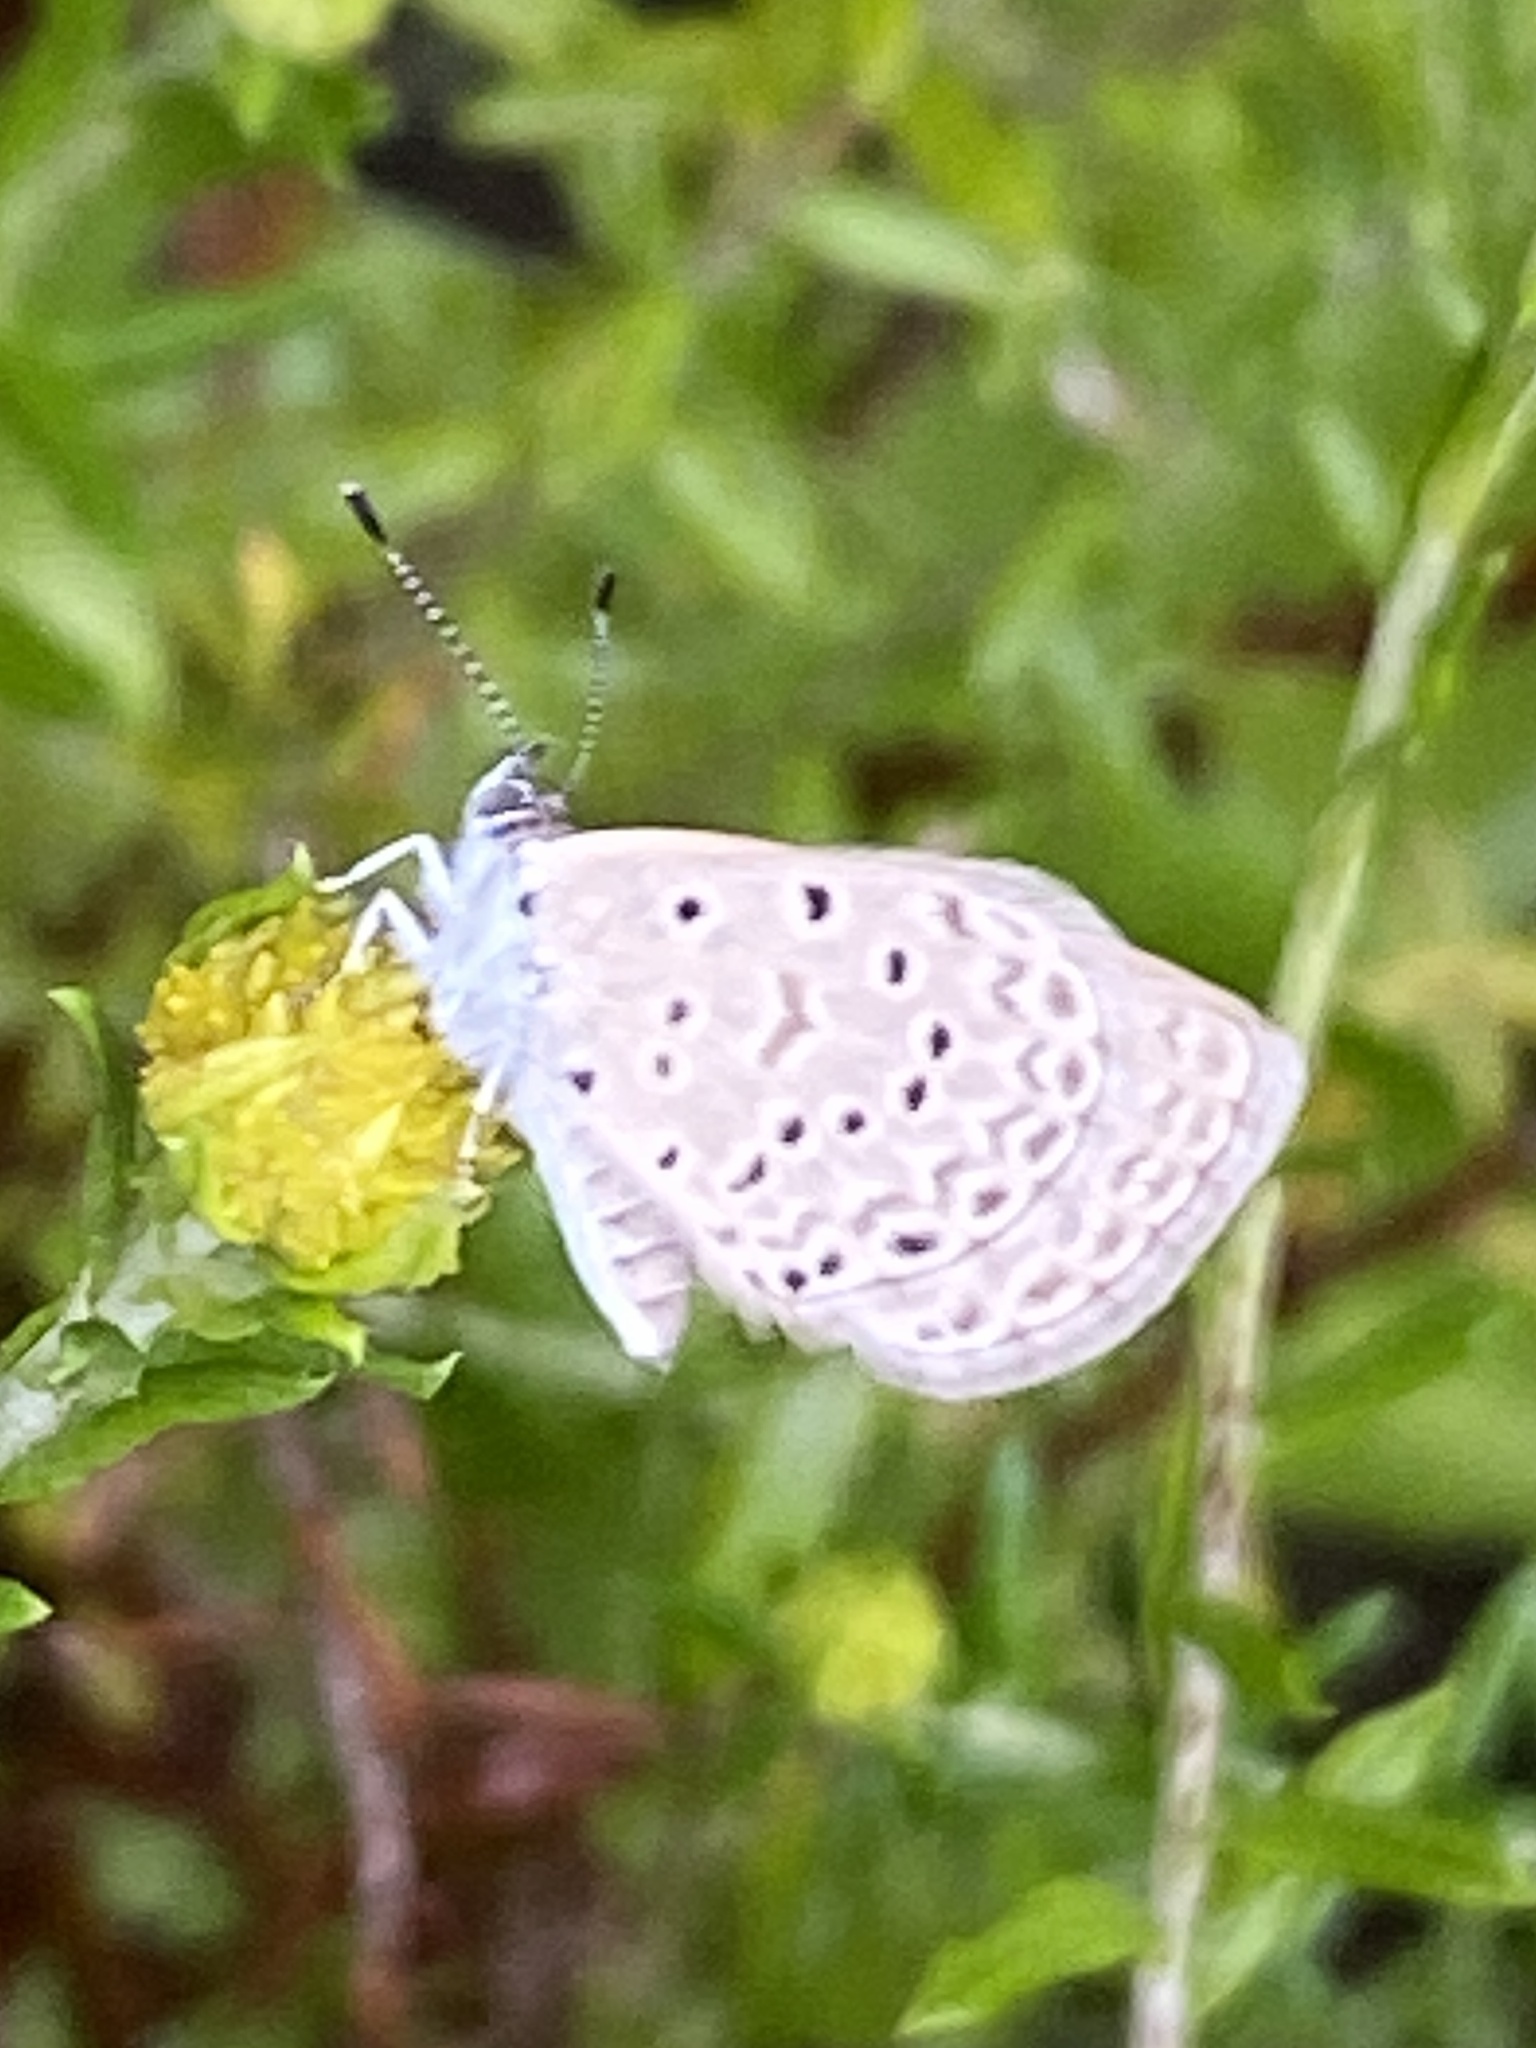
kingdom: Animalia
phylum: Arthropoda
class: Insecta
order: Lepidoptera
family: Lycaenidae
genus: Zizeeria
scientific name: Zizeeria knysna
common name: African grass blue
